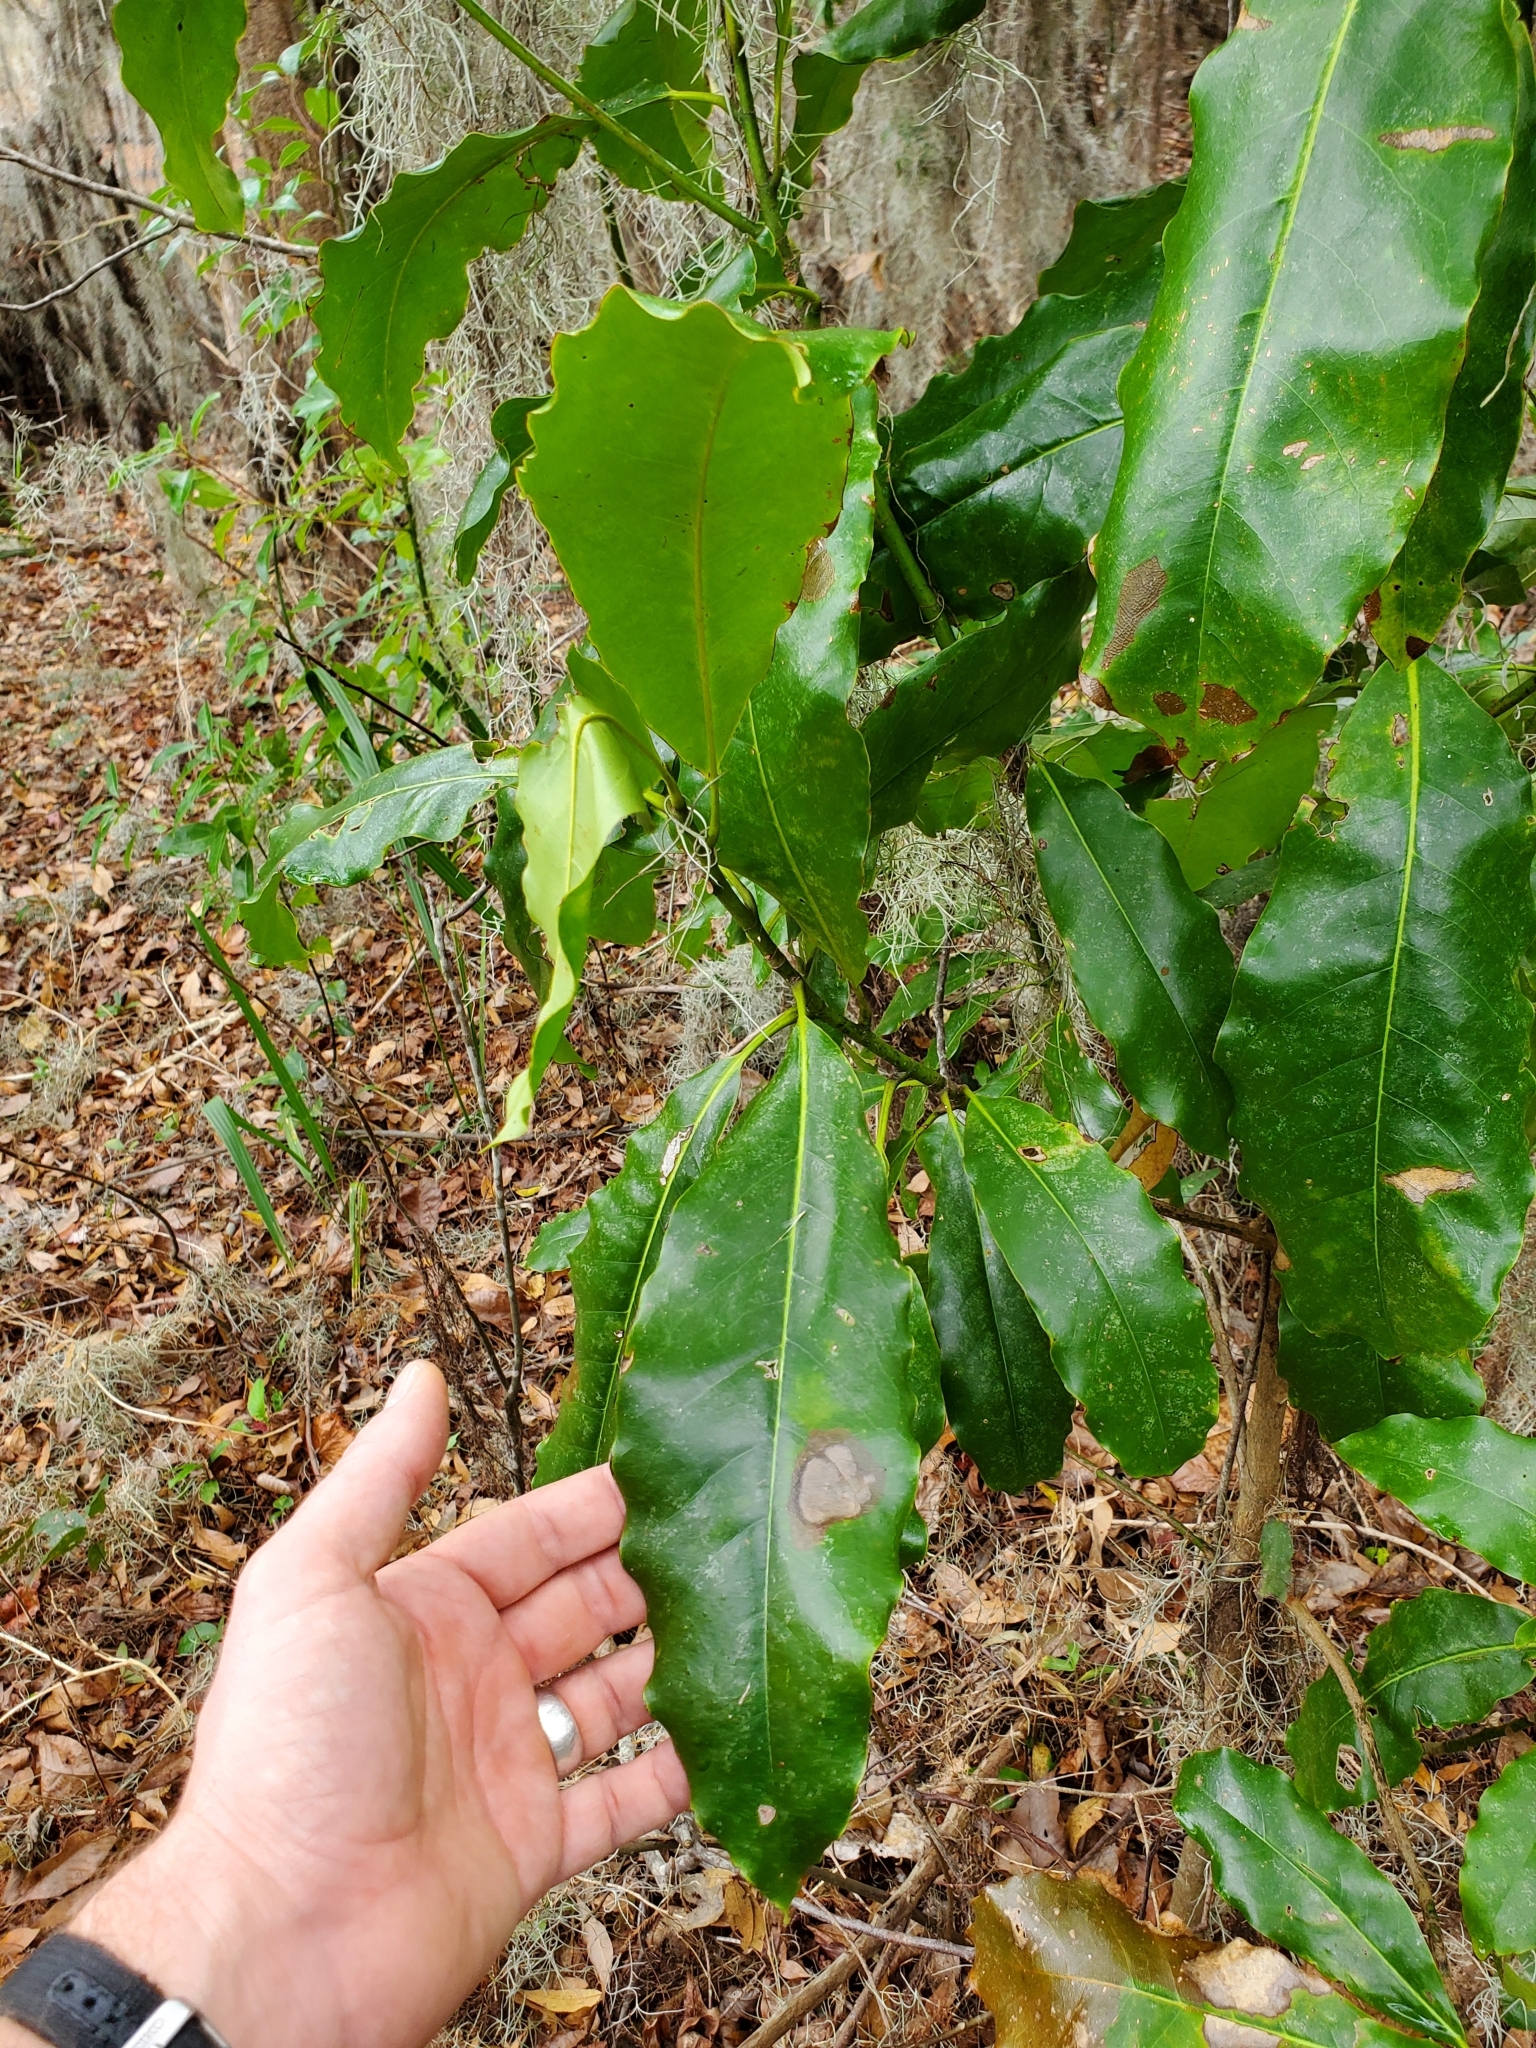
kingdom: Plantae
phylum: Tracheophyta
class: Magnoliopsida
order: Magnoliales
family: Magnoliaceae
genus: Magnolia
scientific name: Magnolia grandiflora
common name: Southern magnolia
